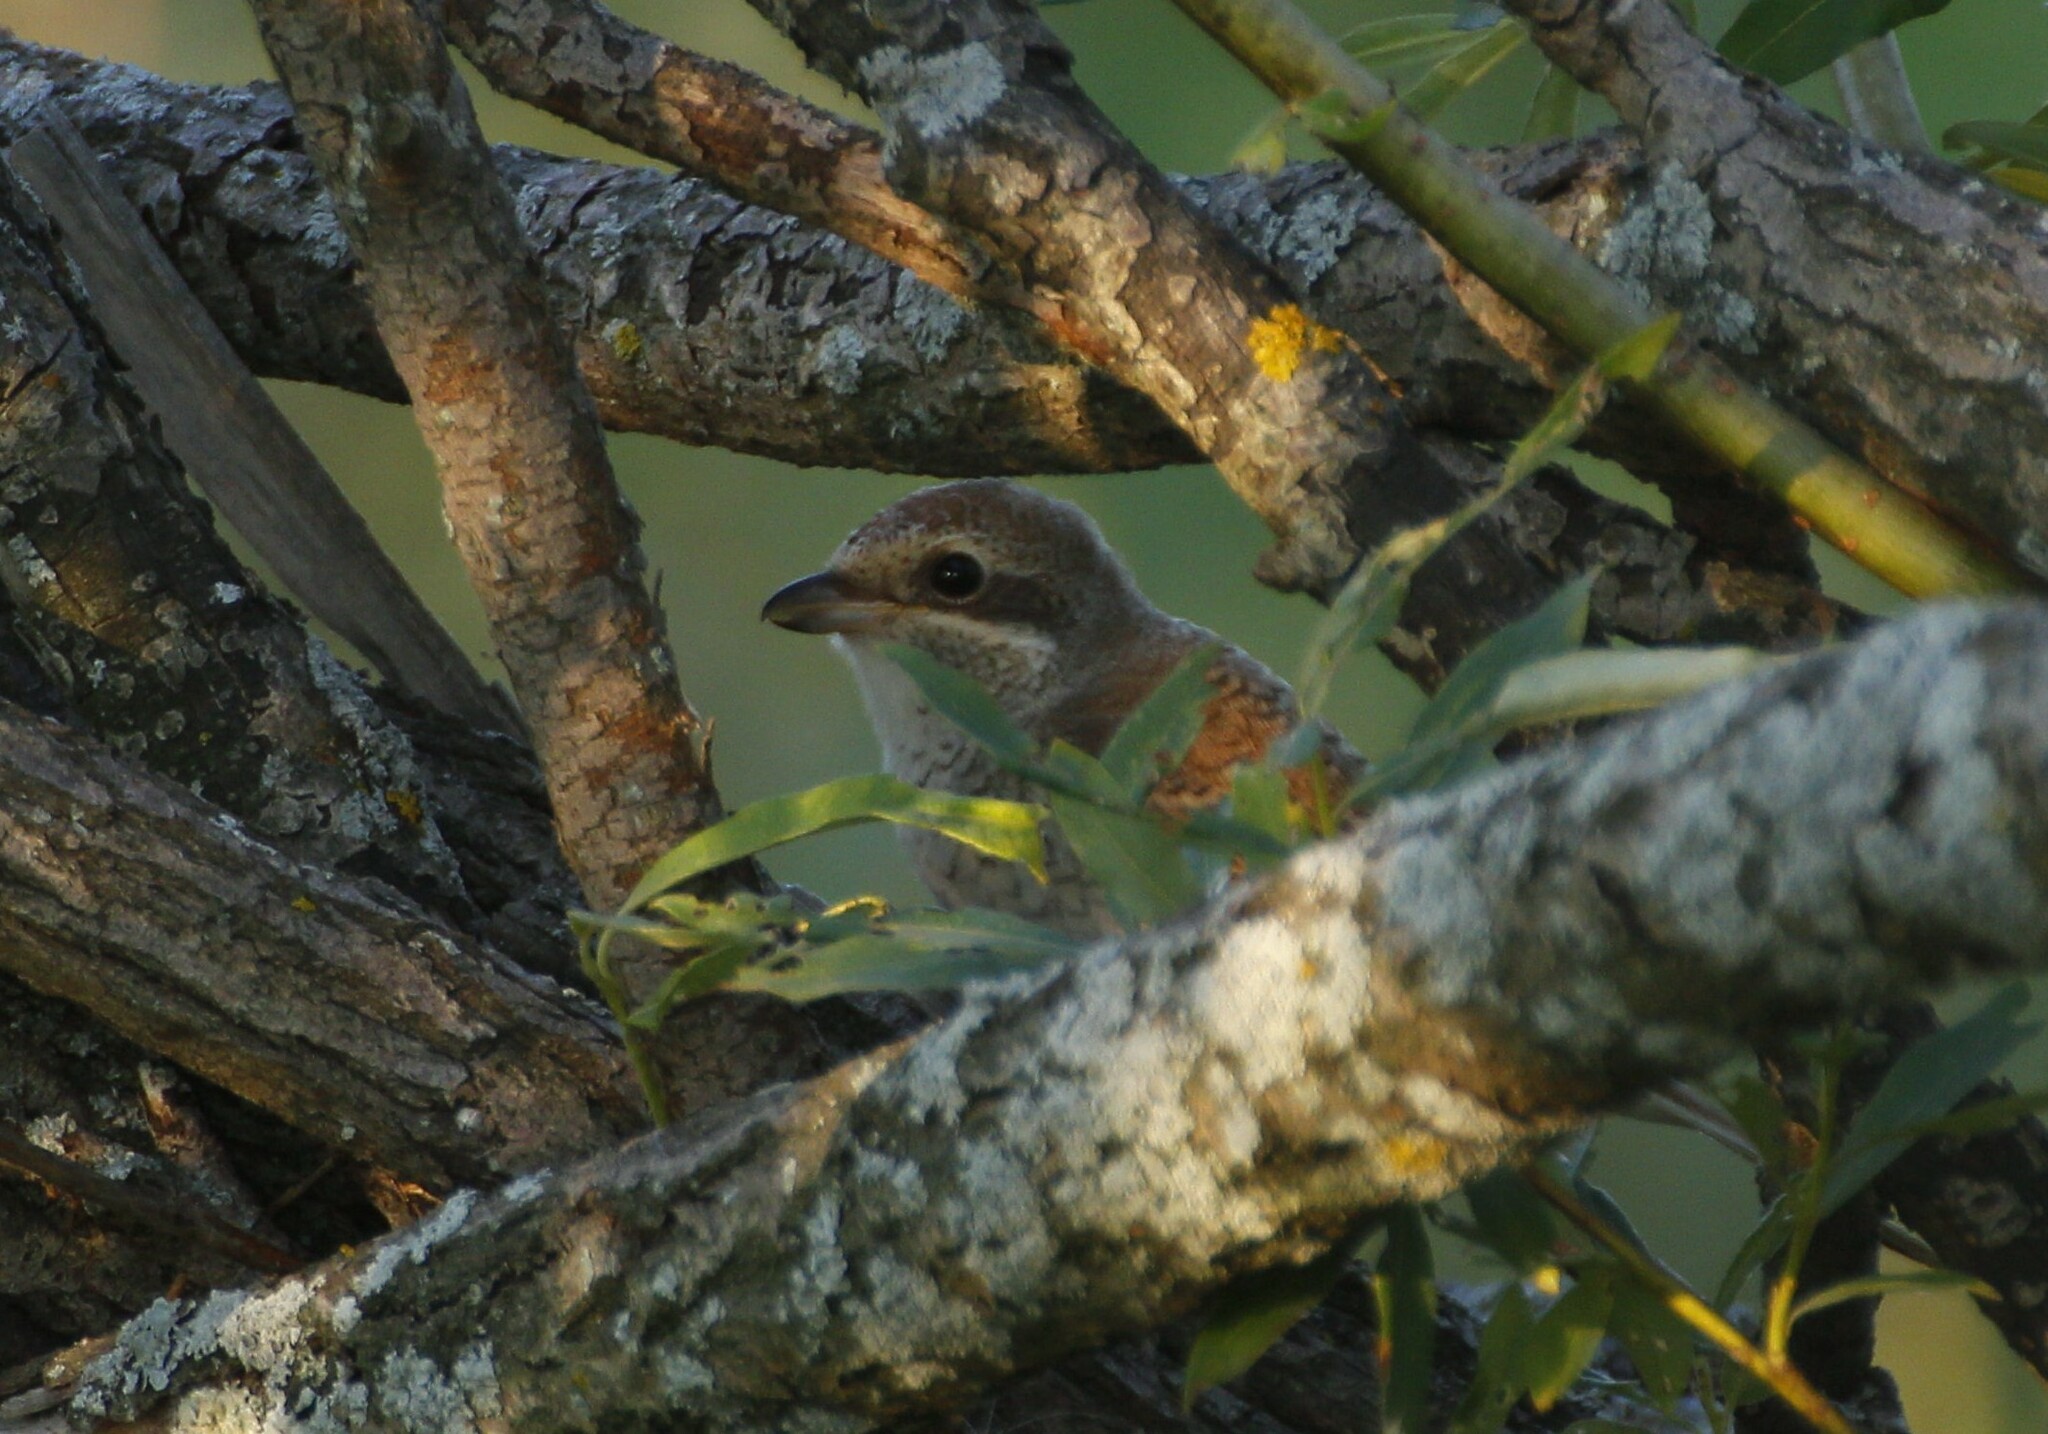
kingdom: Animalia
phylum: Chordata
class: Aves
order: Passeriformes
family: Laniidae
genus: Lanius
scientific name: Lanius collurio
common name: Red-backed shrike
